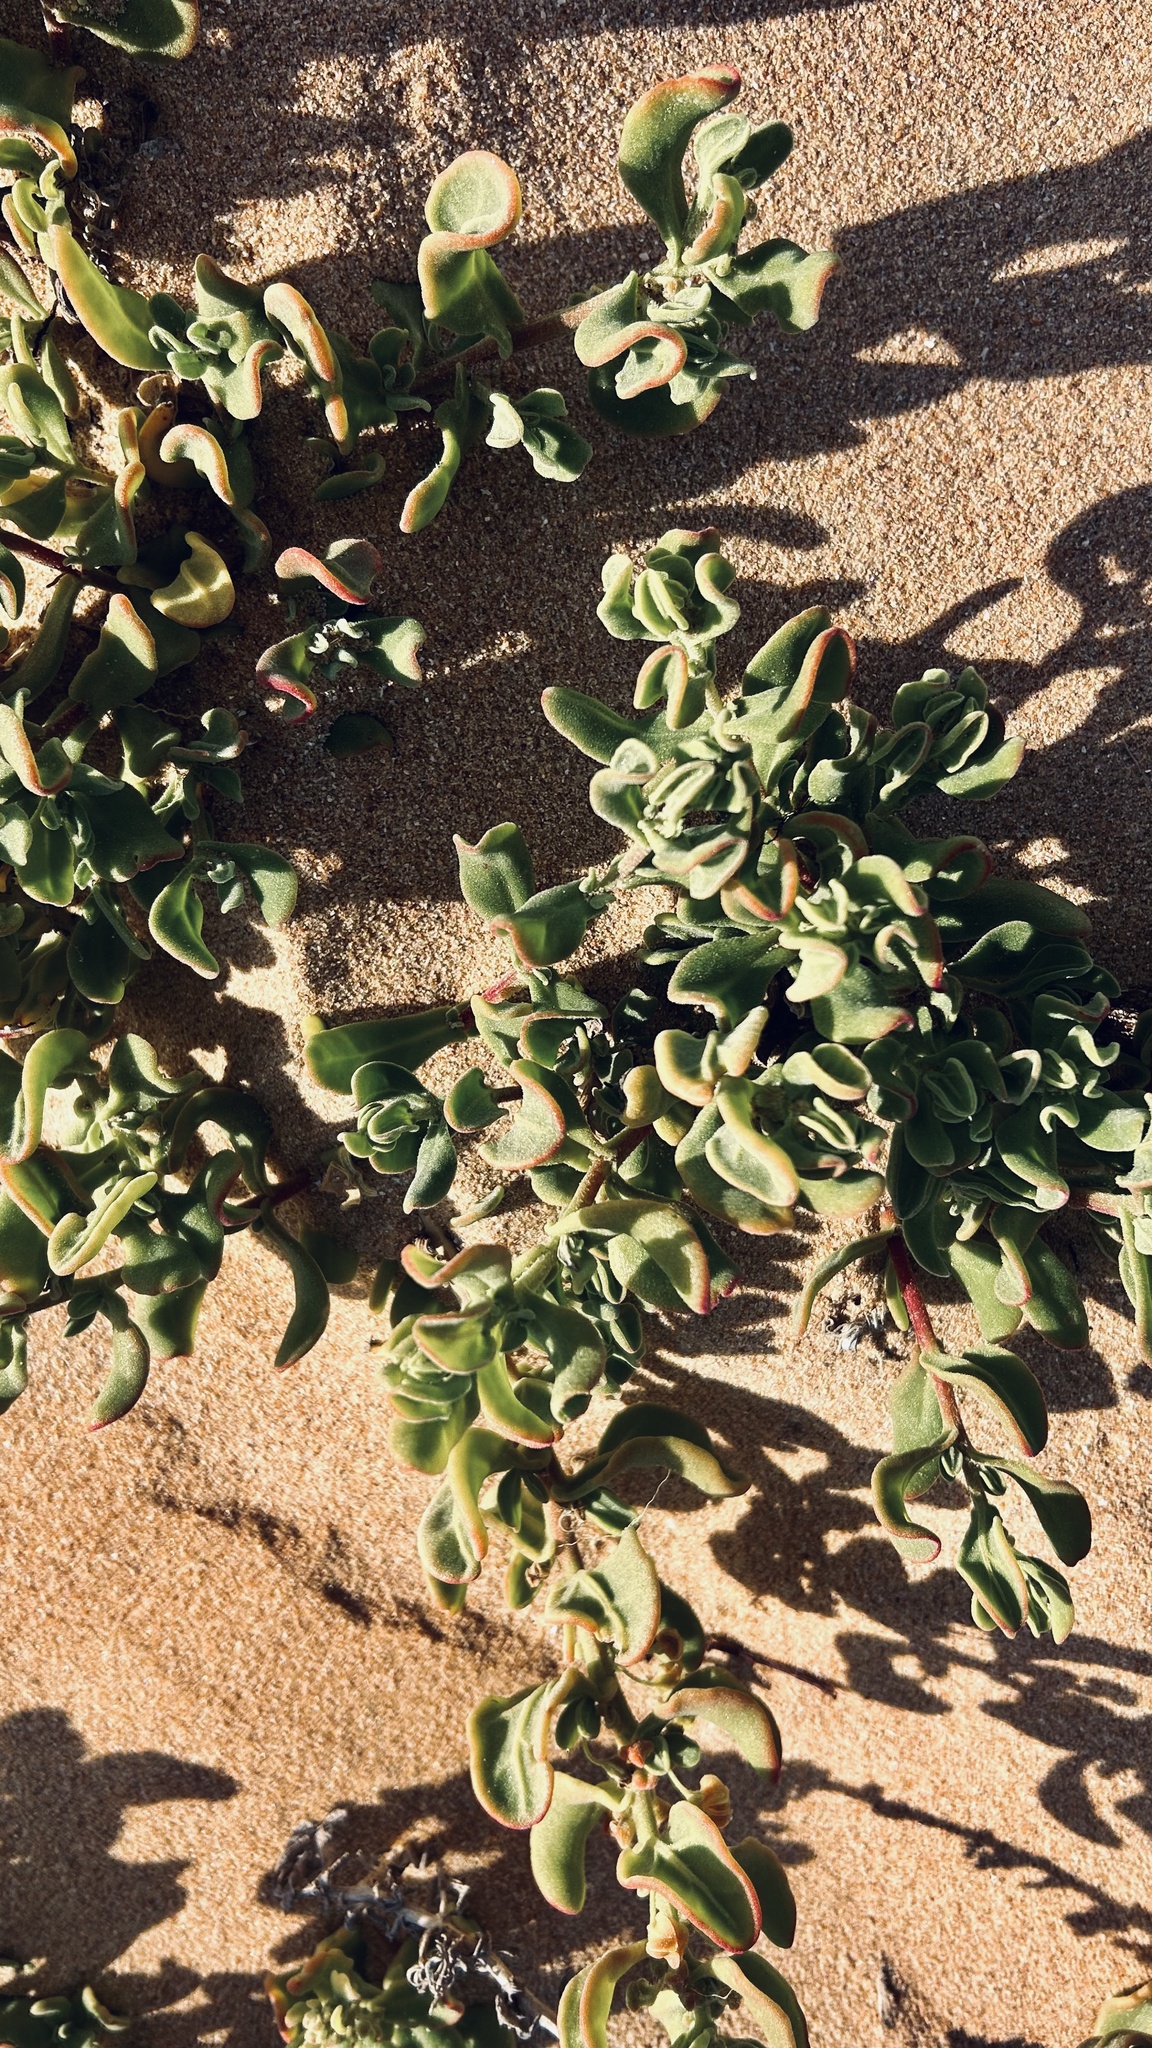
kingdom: Plantae
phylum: Tracheophyta
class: Magnoliopsida
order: Caryophyllales
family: Aizoaceae
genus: Tetragonia
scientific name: Tetragonia decumbens
